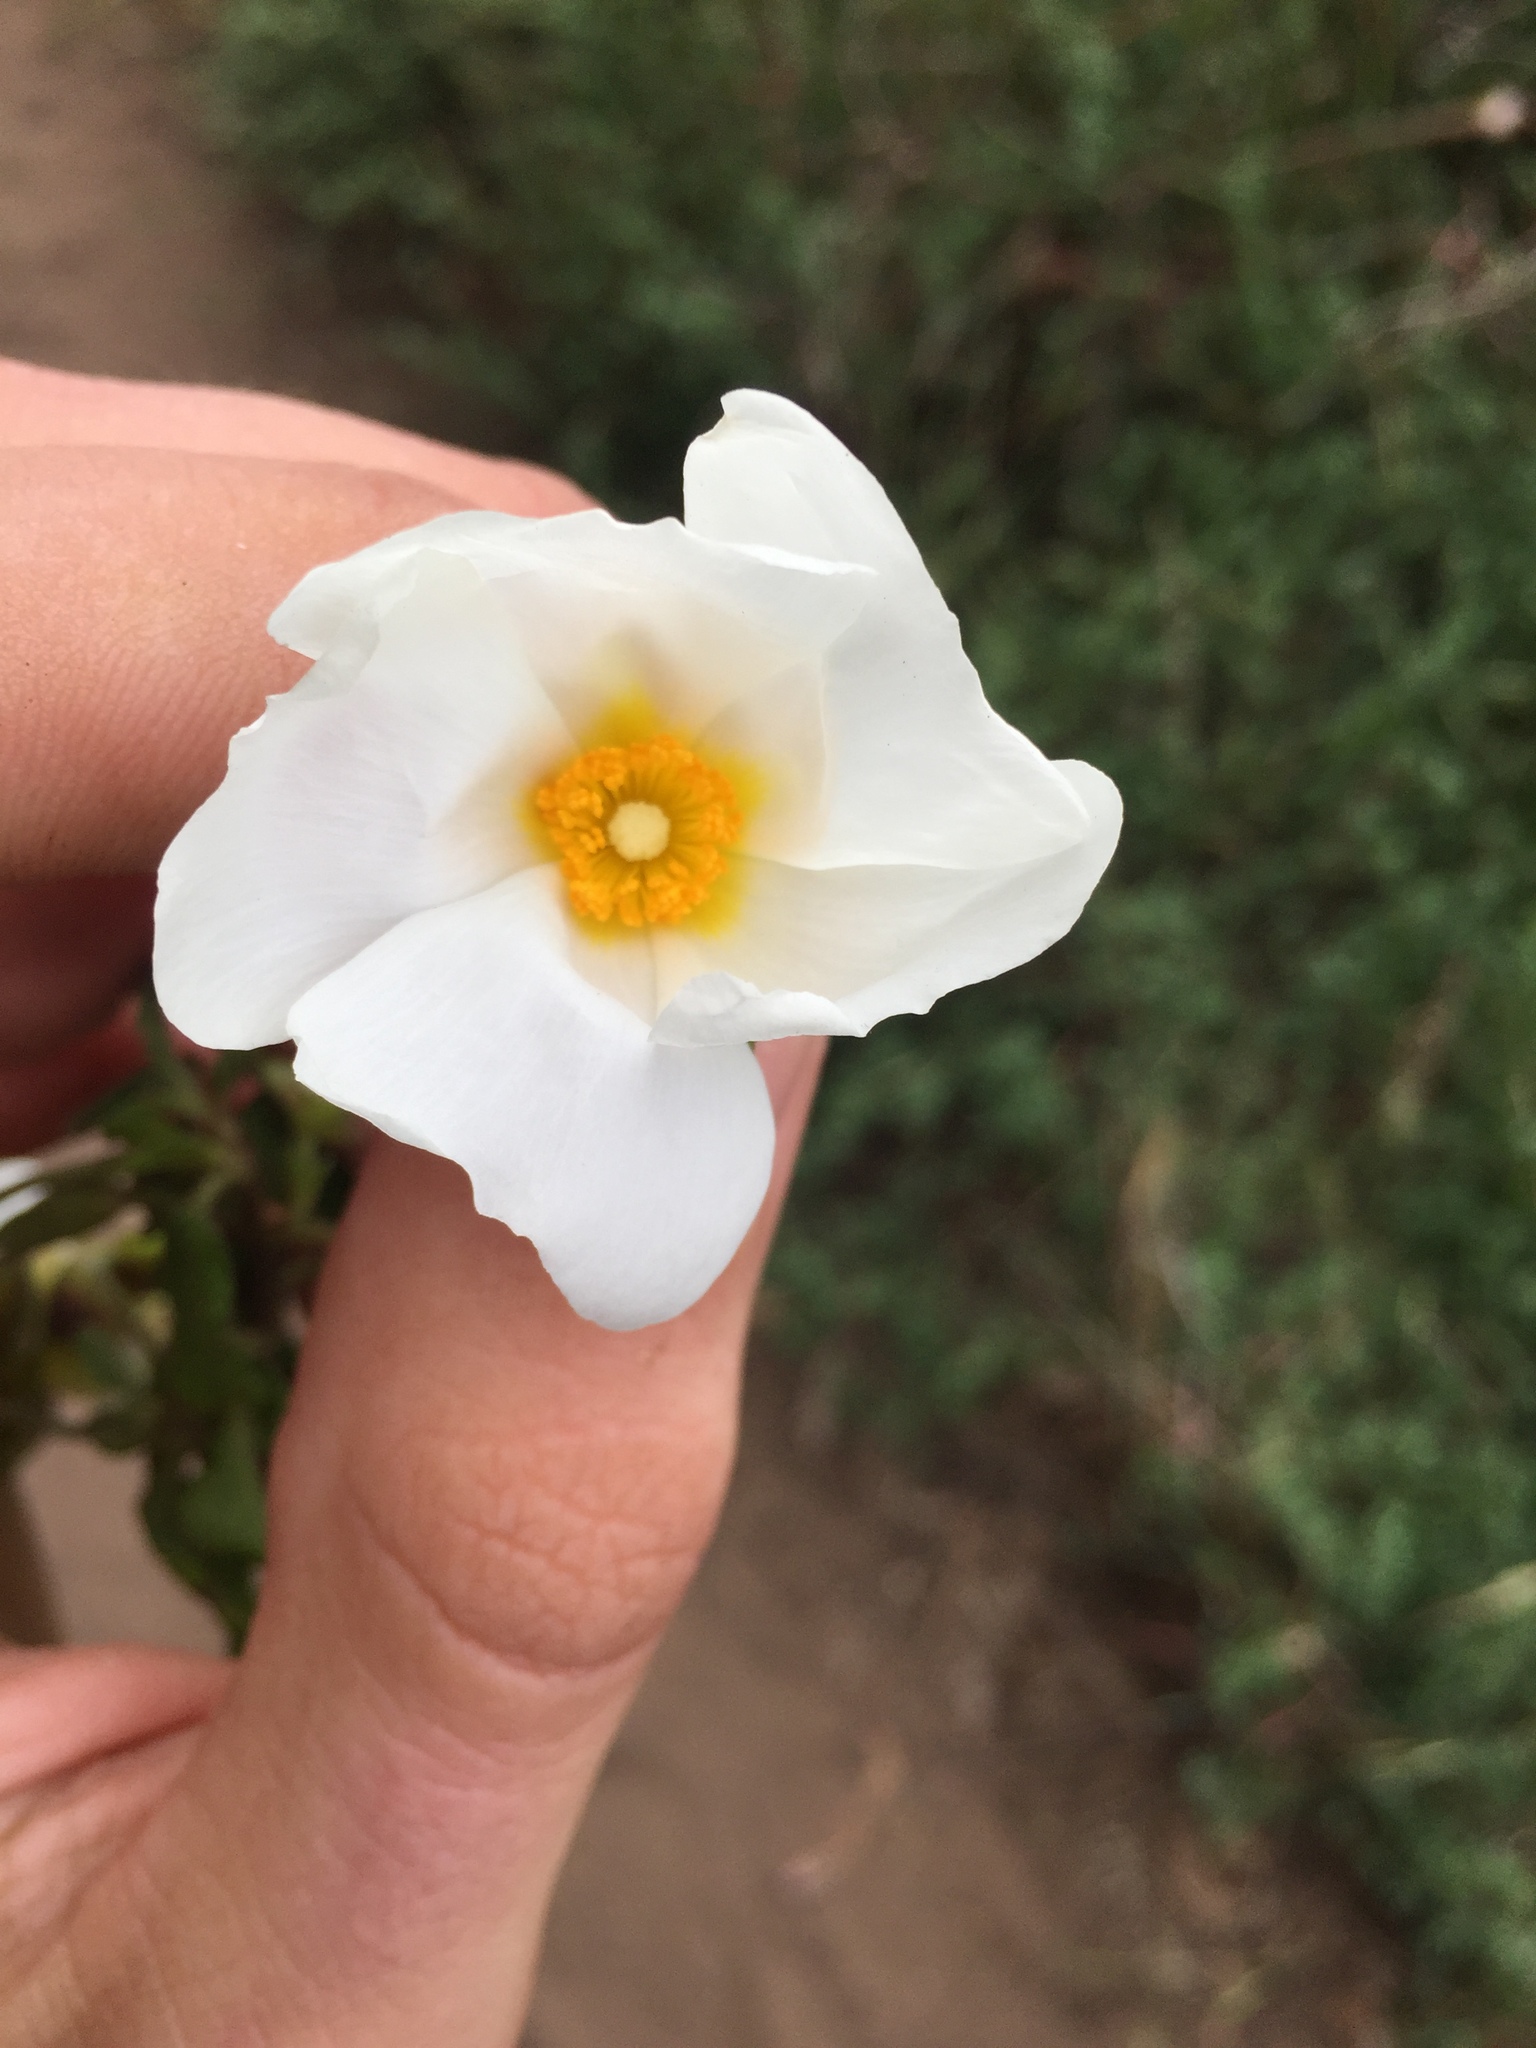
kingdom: Plantae
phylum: Tracheophyta
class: Magnoliopsida
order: Malvales
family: Cistaceae
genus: Cistus
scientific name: Cistus salviifolius
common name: Salvia cistus
